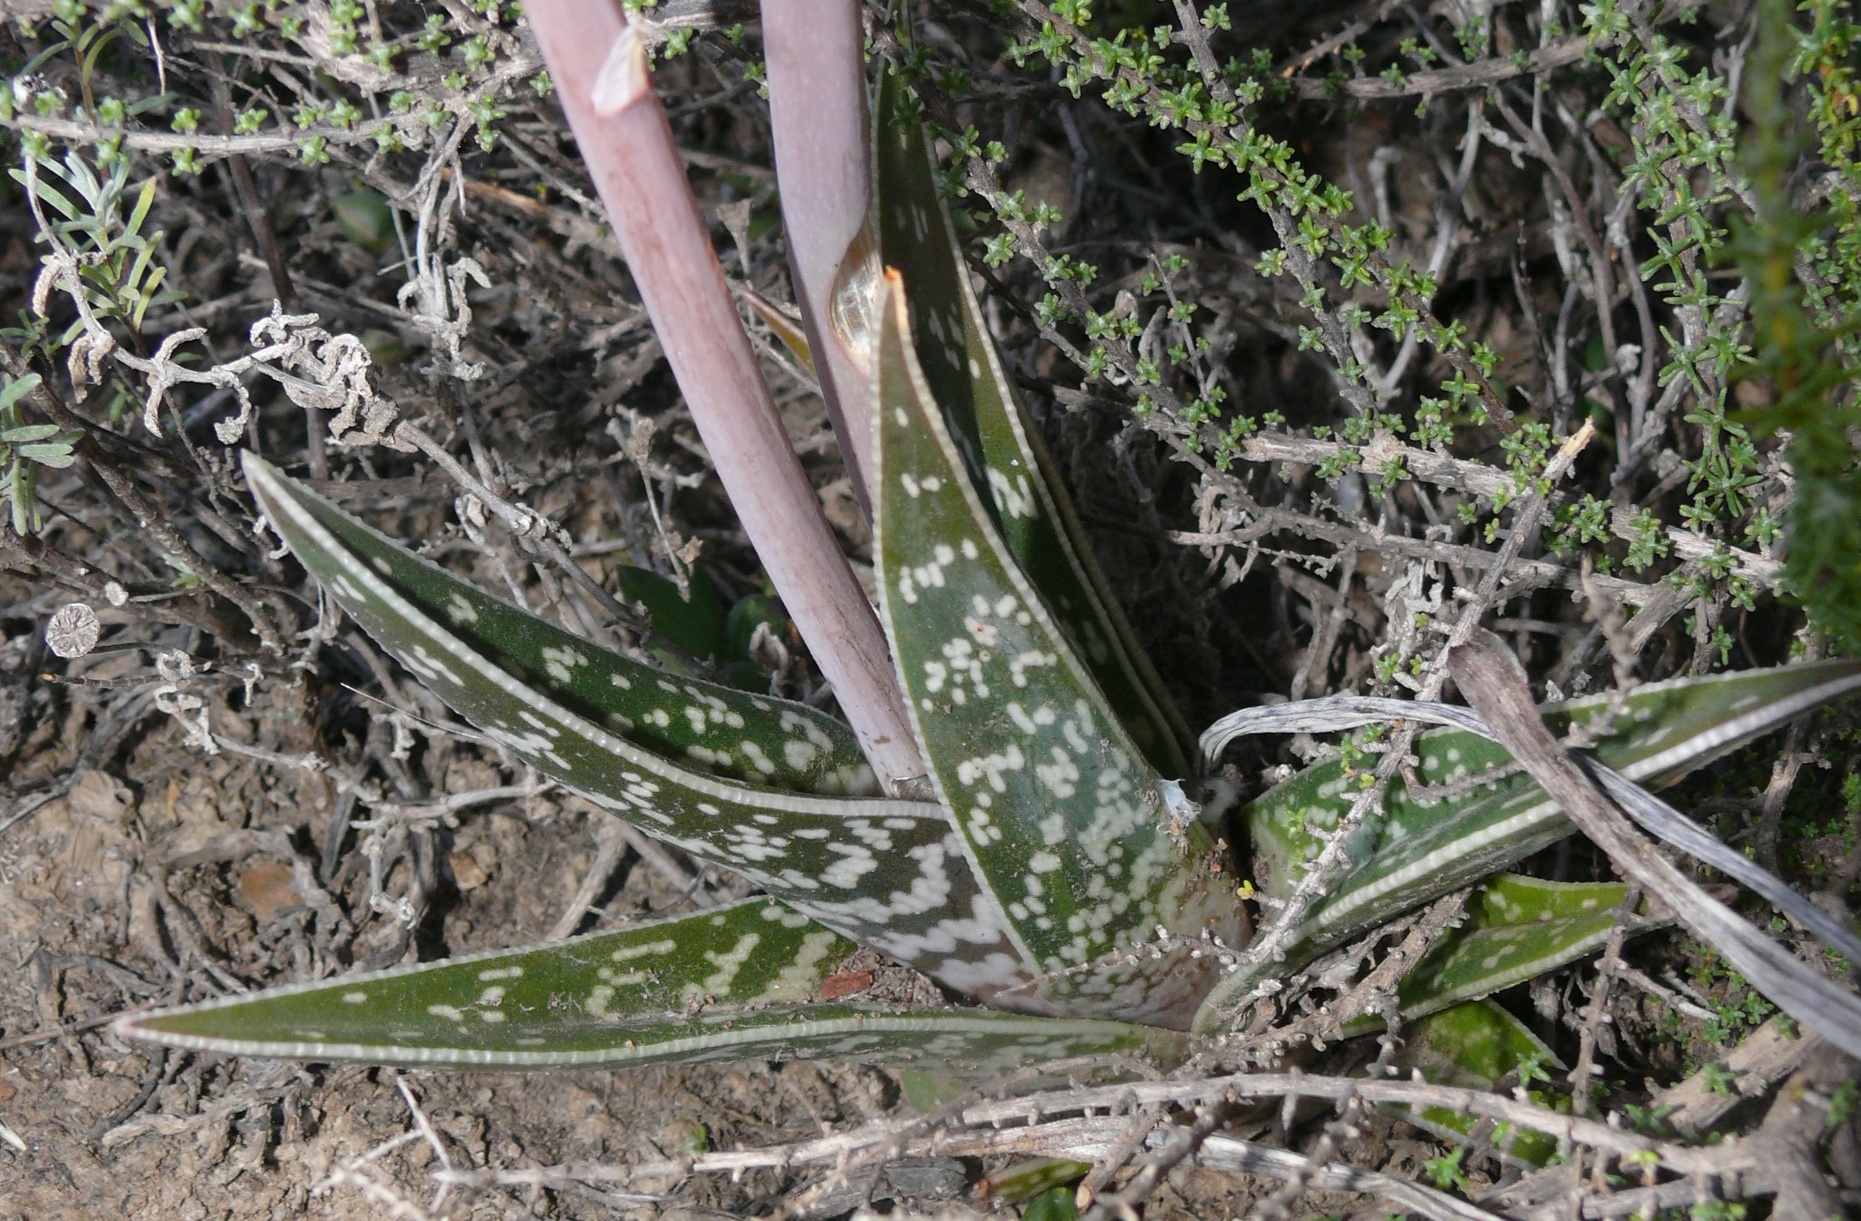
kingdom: Plantae
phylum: Tracheophyta
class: Liliopsida
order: Asparagales
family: Asphodelaceae
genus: Gonialoe
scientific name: Gonialoe variegata
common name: Aloe variegata
